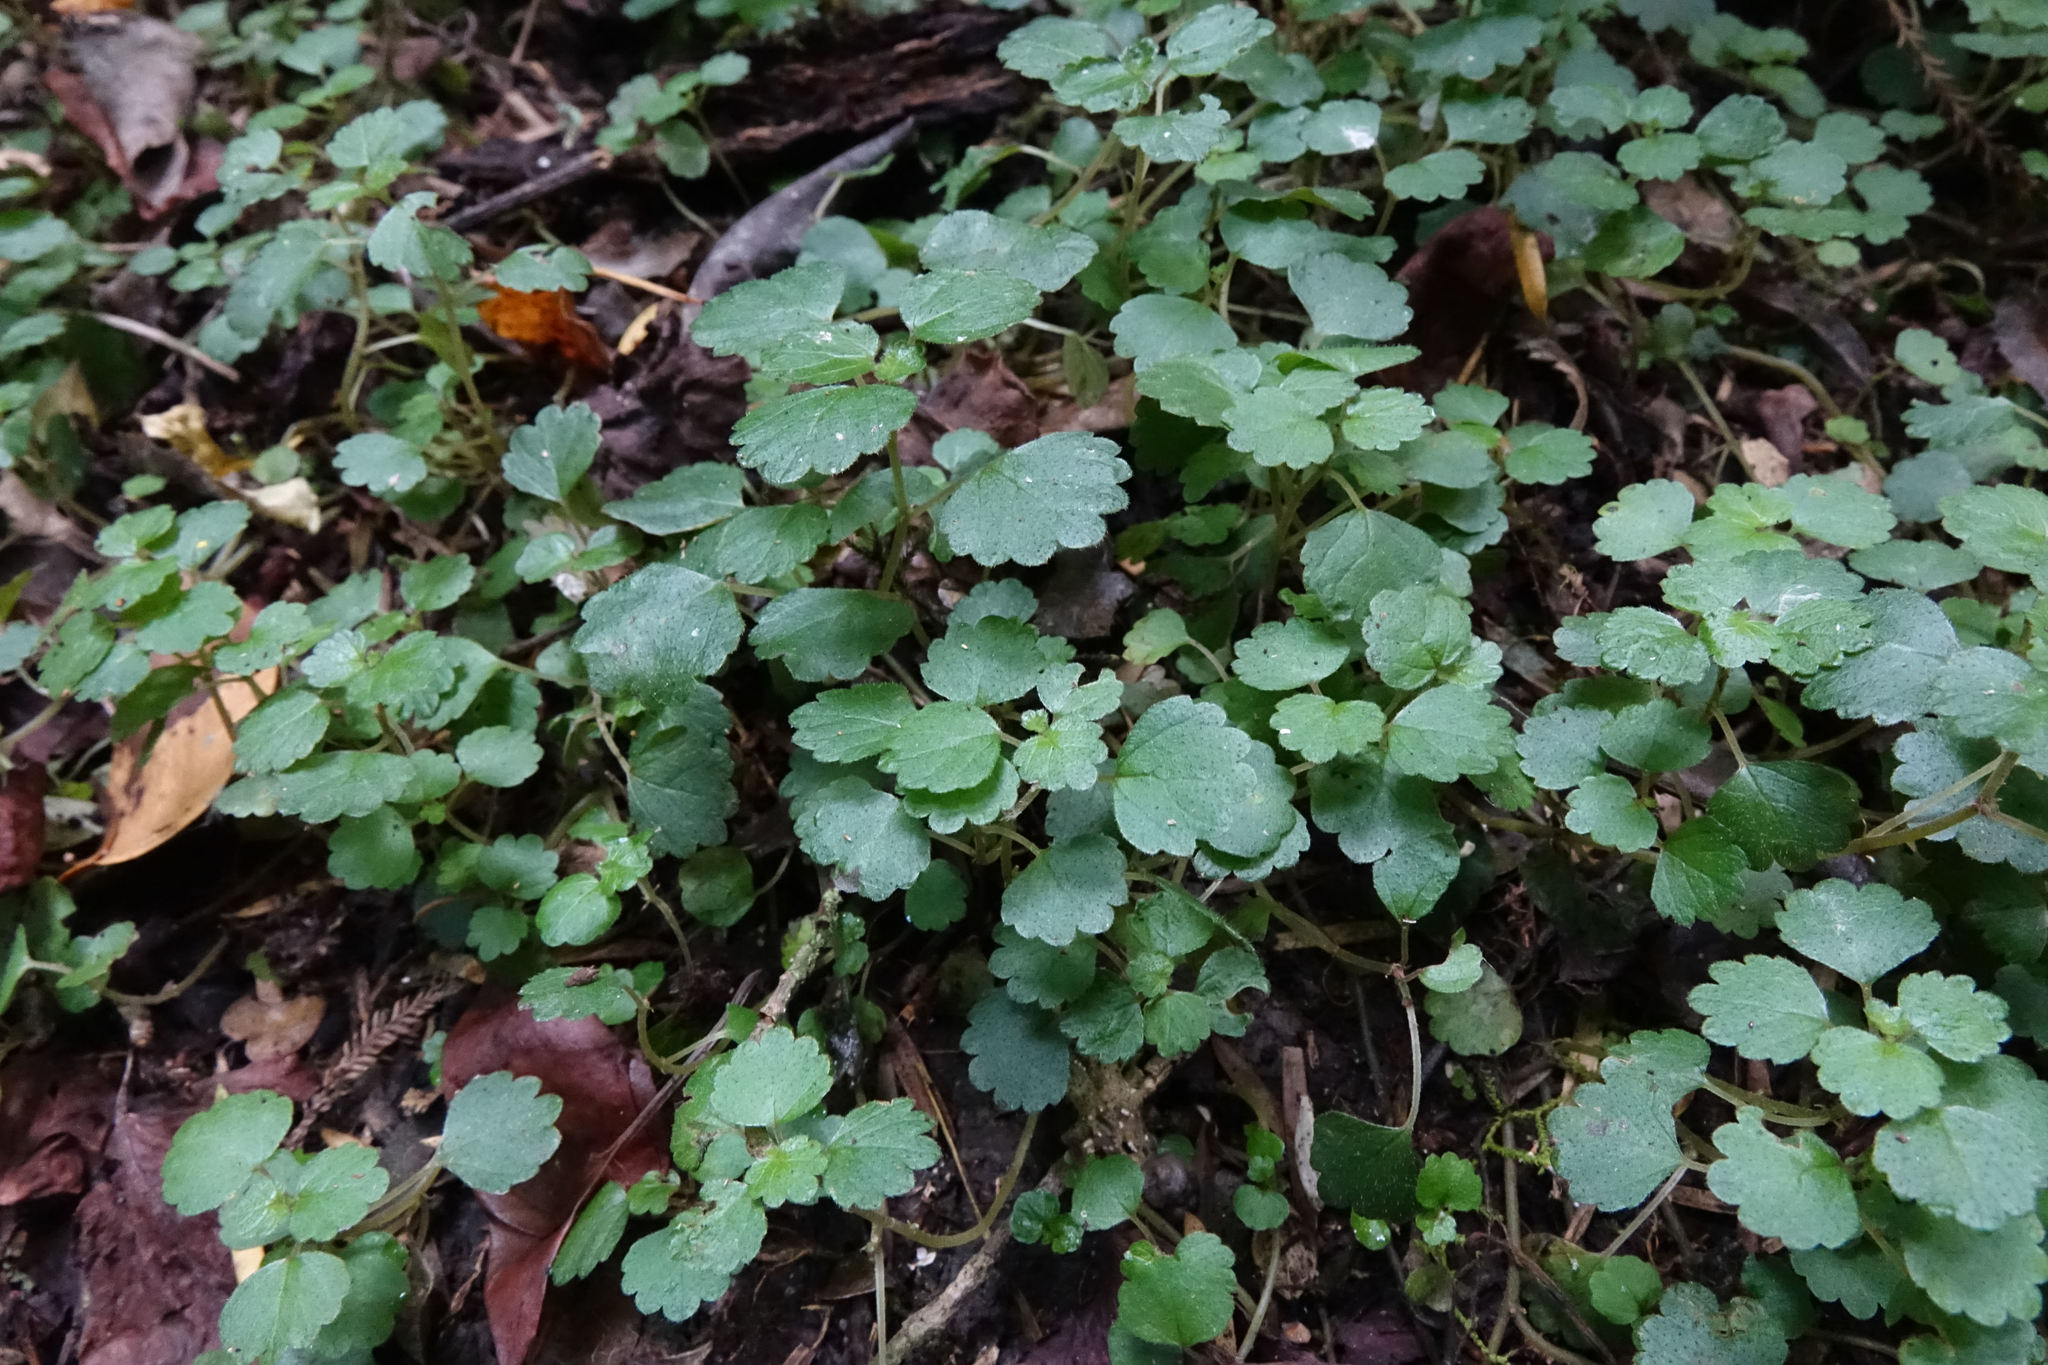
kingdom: Plantae
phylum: Tracheophyta
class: Magnoliopsida
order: Rosales
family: Urticaceae
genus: Australina
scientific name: Australina pusilla
